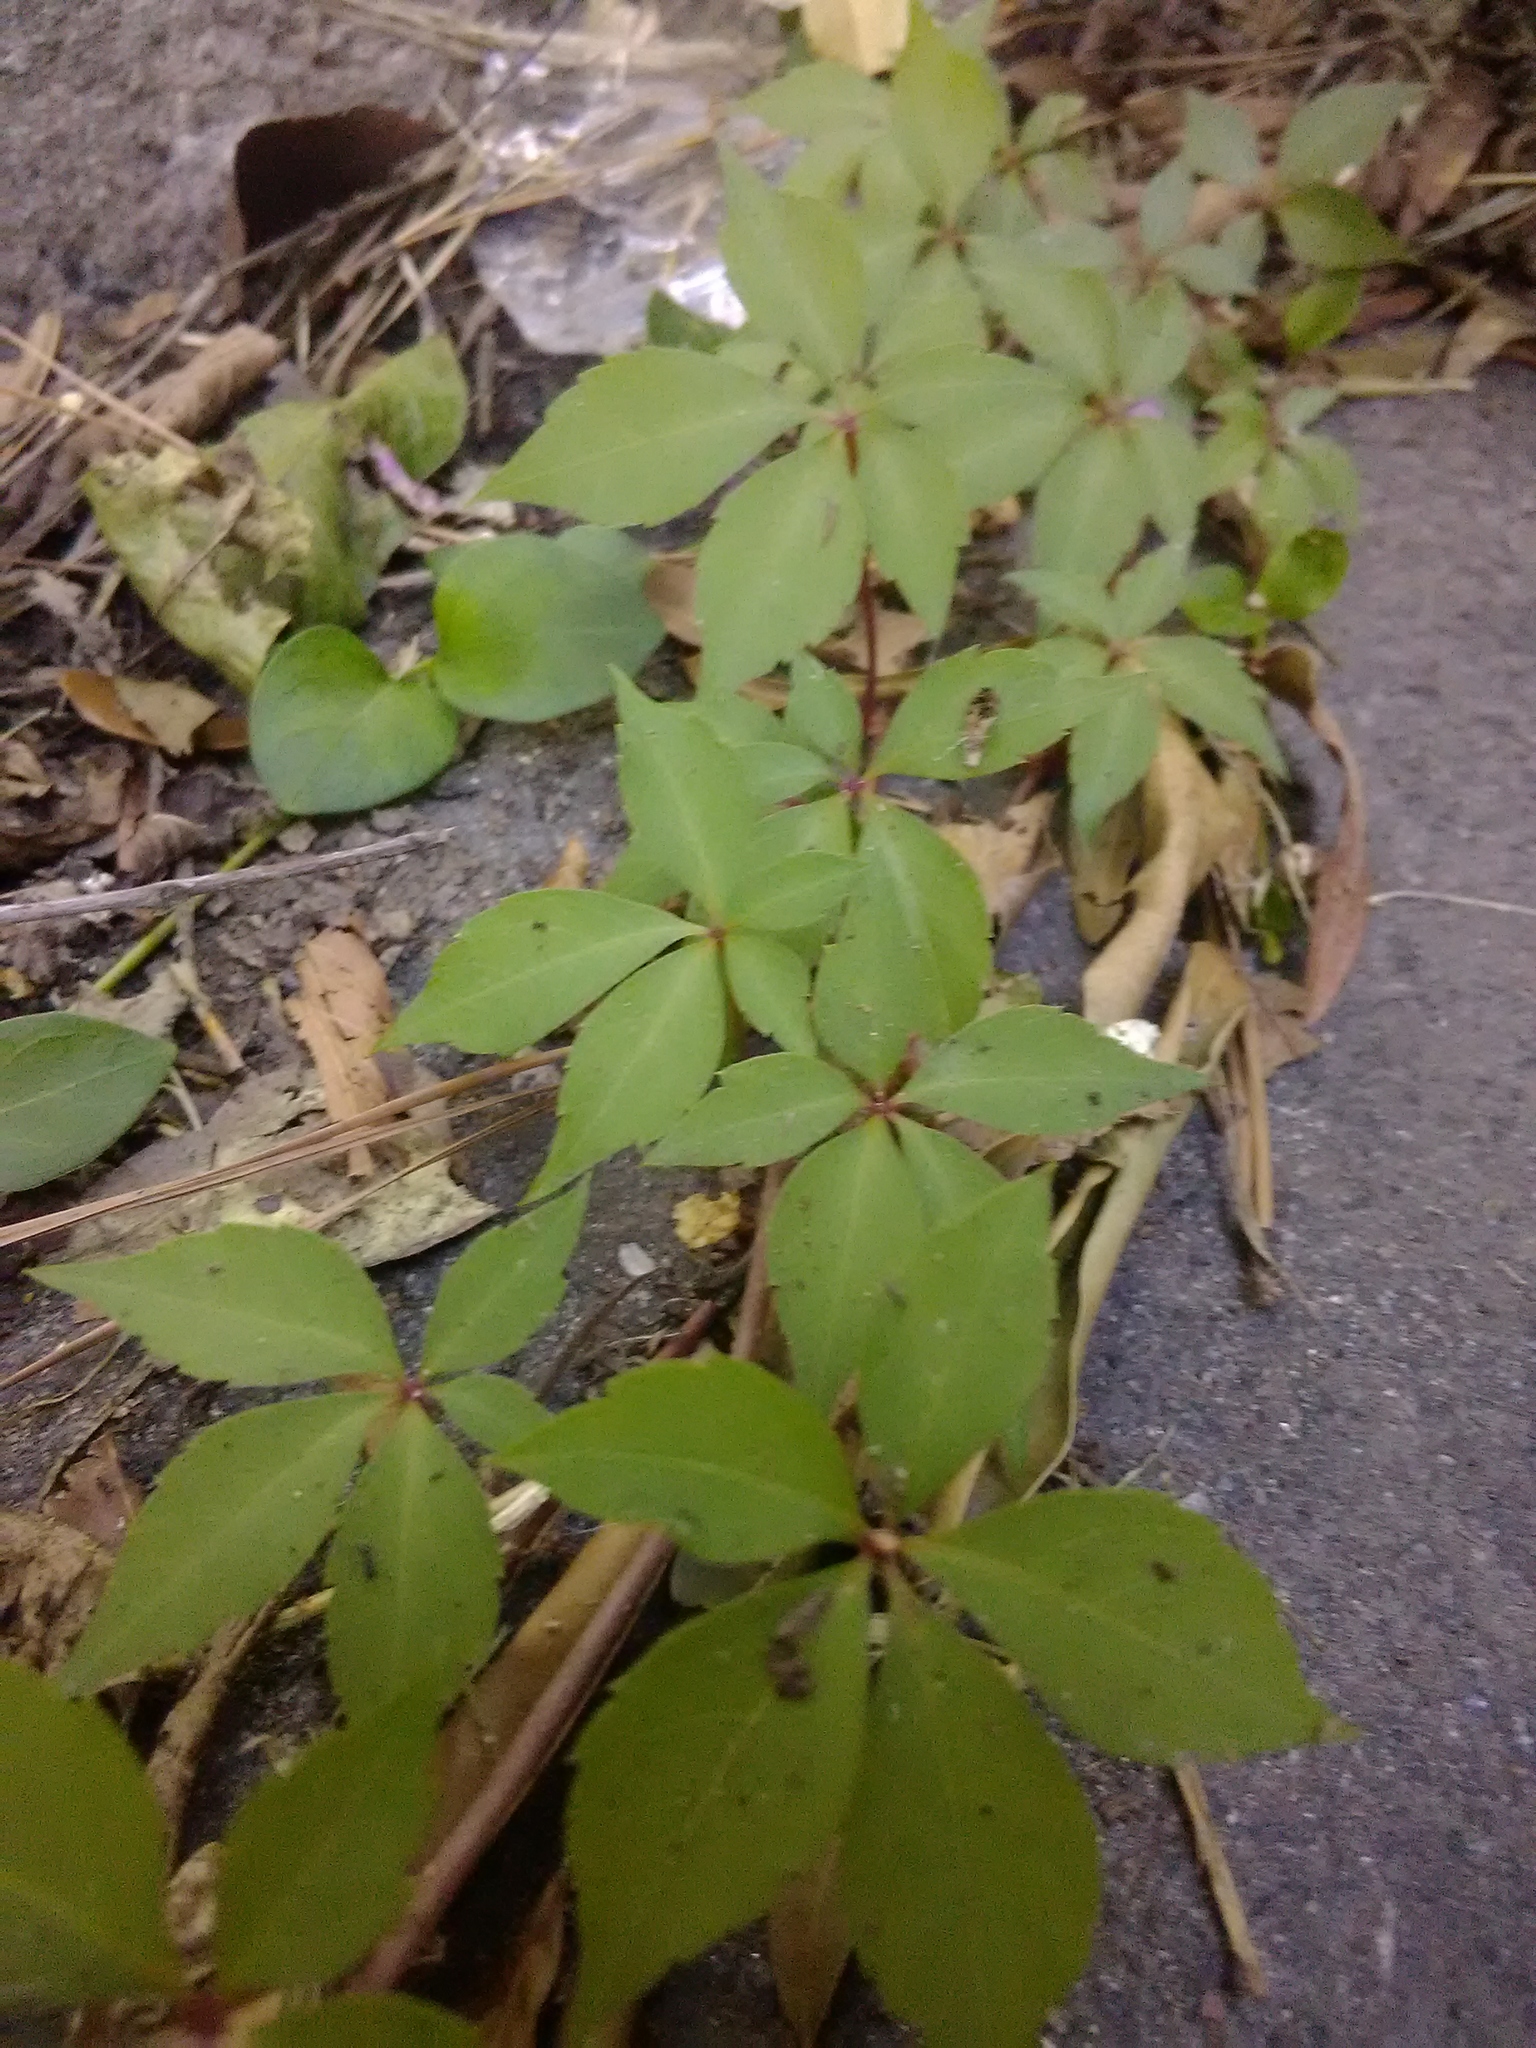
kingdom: Plantae
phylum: Tracheophyta
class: Magnoliopsida
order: Vitales
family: Vitaceae
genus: Parthenocissus
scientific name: Parthenocissus quinquefolia
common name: Virginia-creeper
